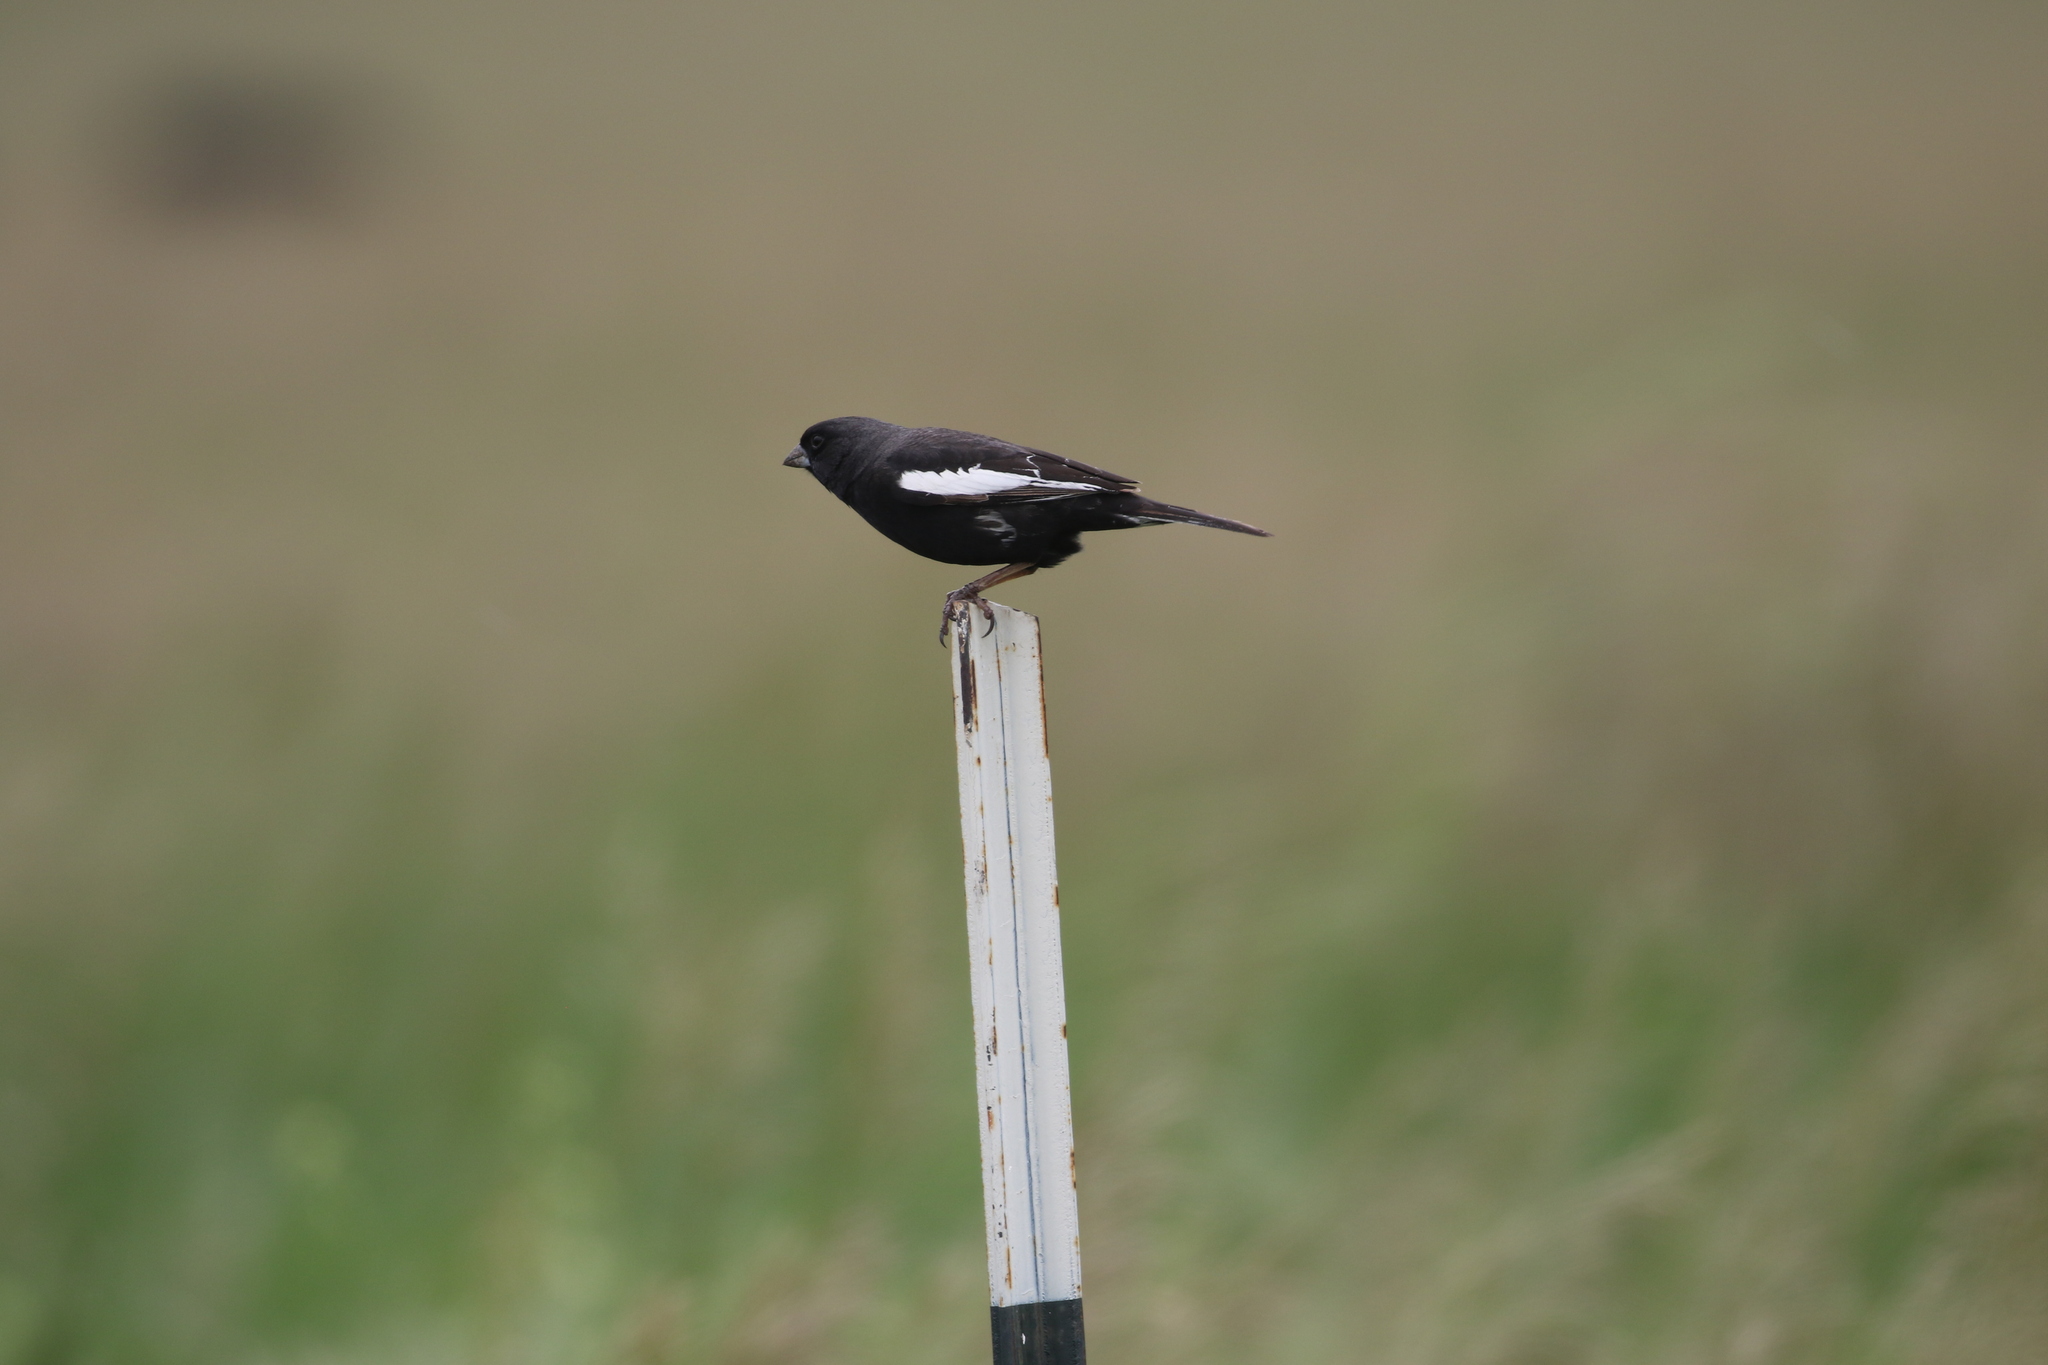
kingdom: Animalia
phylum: Chordata
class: Aves
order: Passeriformes
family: Passerellidae
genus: Calamospiza
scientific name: Calamospiza melanocorys
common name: Lark bunting
